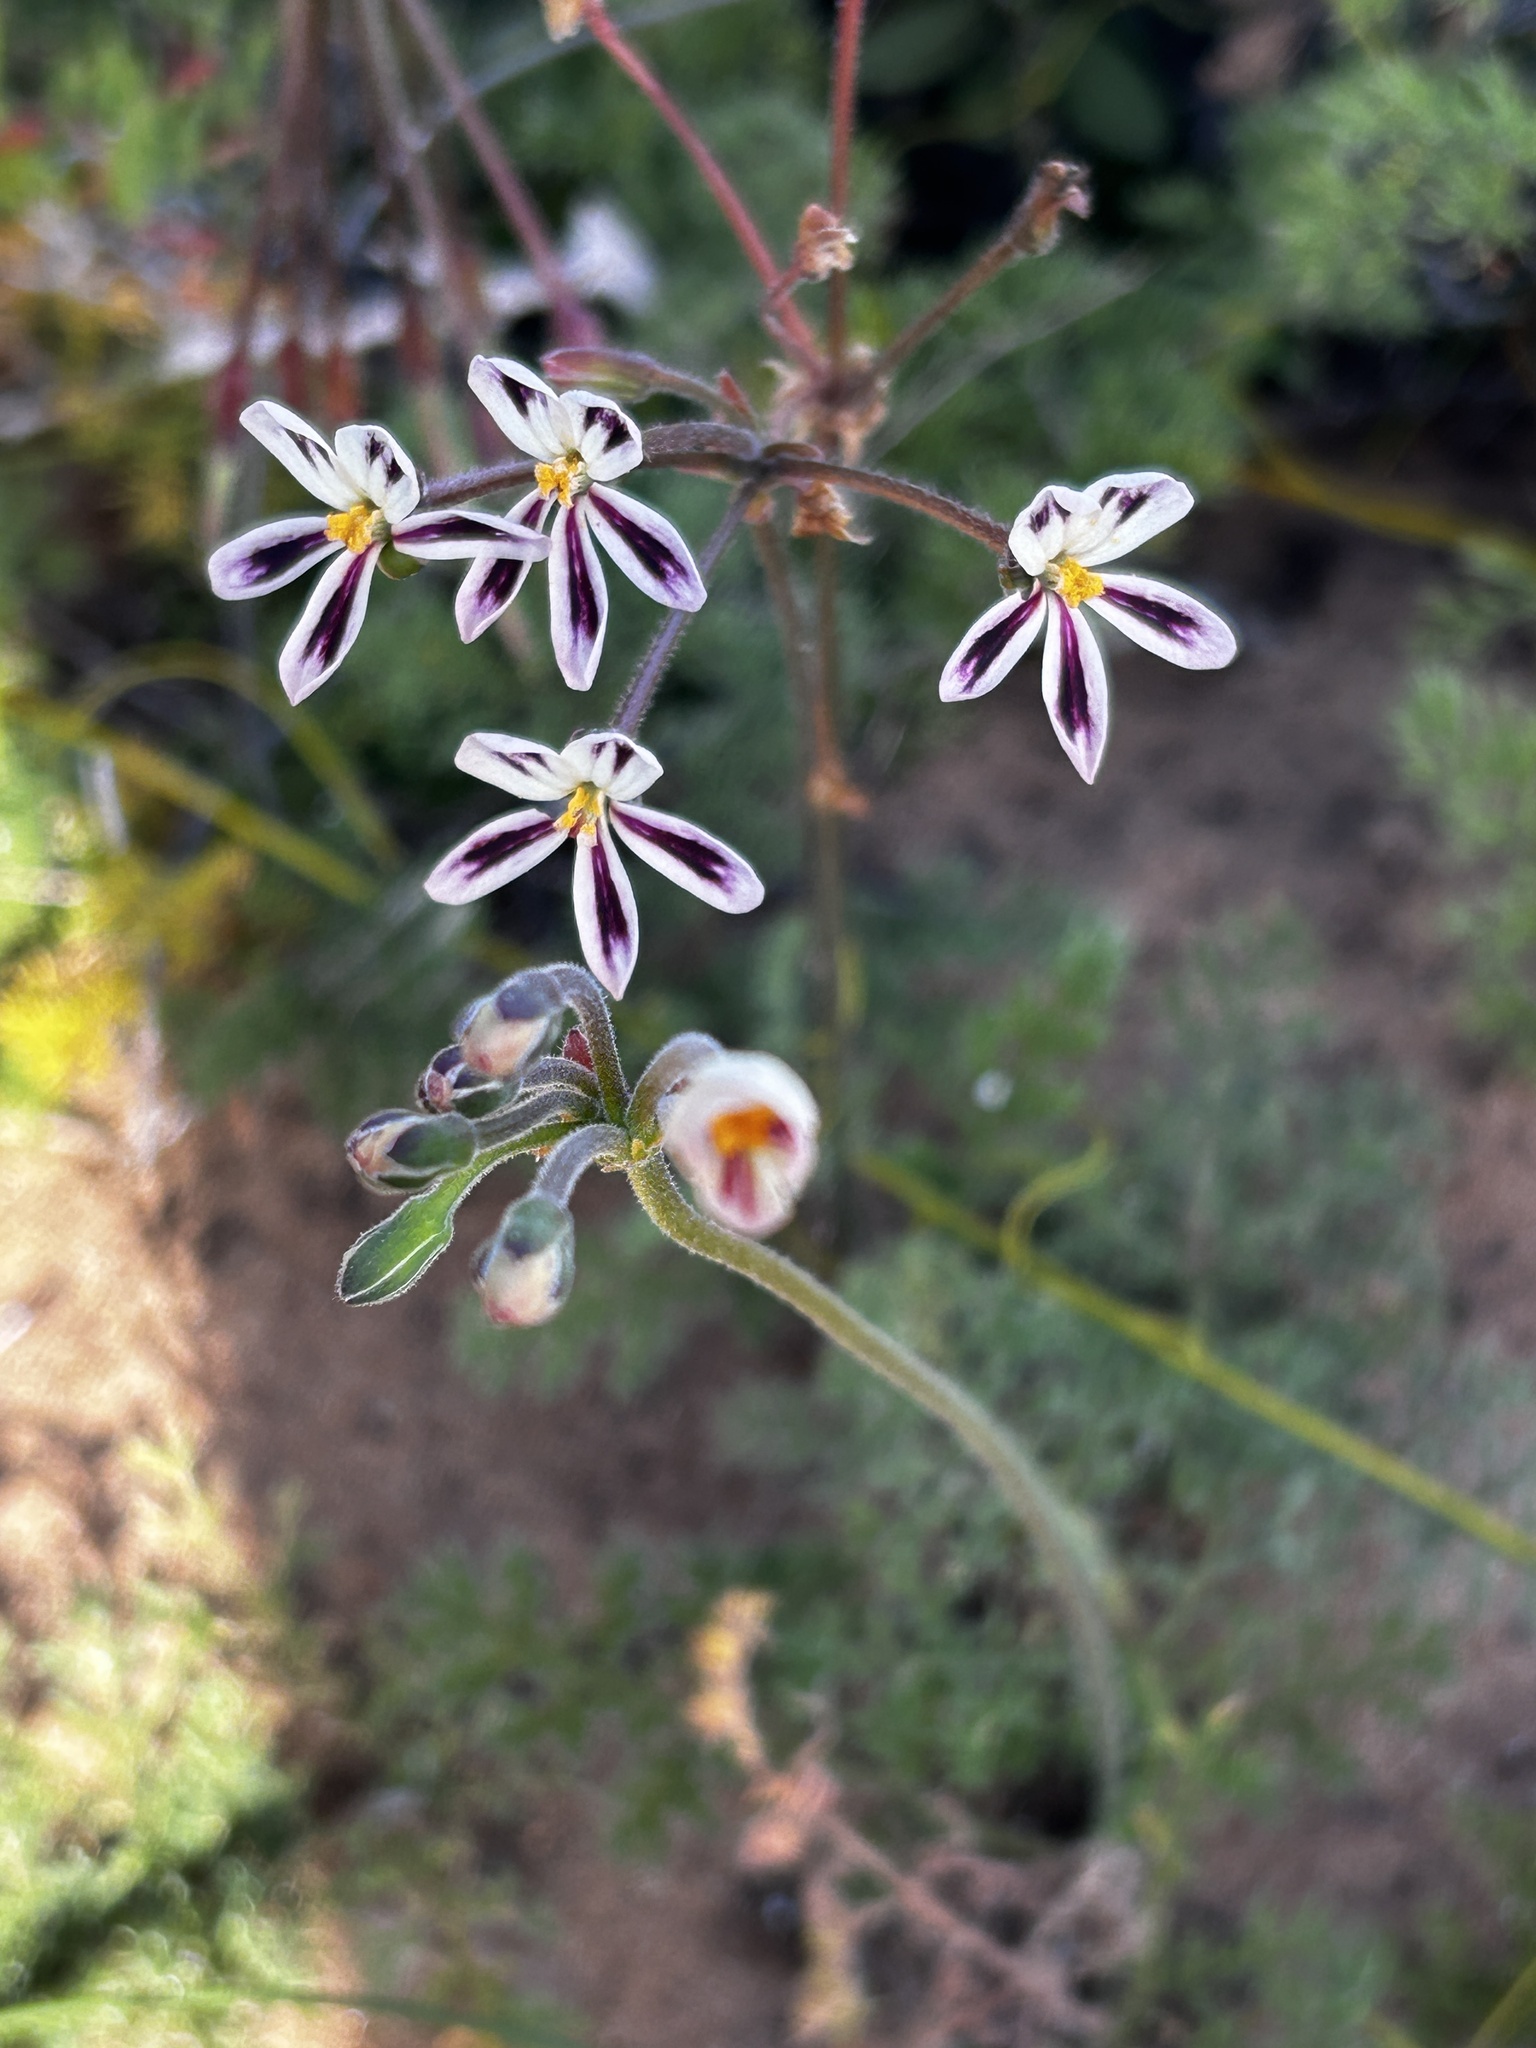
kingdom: Plantae
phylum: Tracheophyta
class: Magnoliopsida
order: Geraniales
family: Geraniaceae
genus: Pelargonium
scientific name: Pelargonium triste
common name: Night-scent pelargonium
